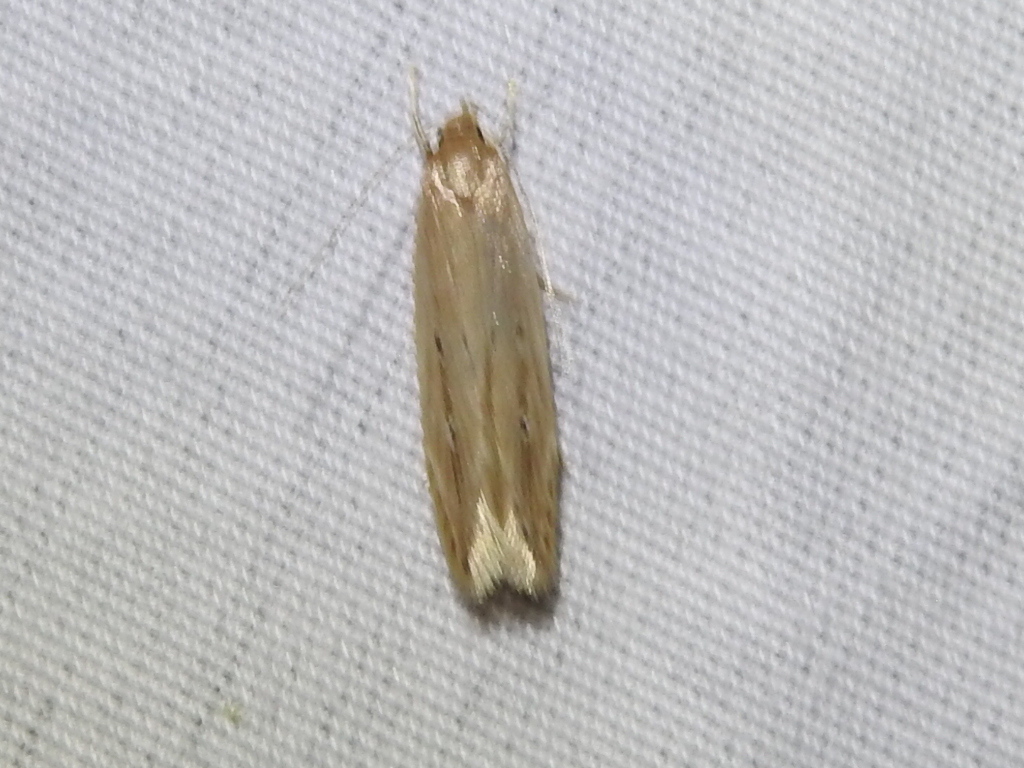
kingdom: Animalia
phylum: Arthropoda
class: Insecta
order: Lepidoptera
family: Cosmopterigidae
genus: Limnaecia
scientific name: Limnaecia phragmitella
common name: Bulrush cosmet
